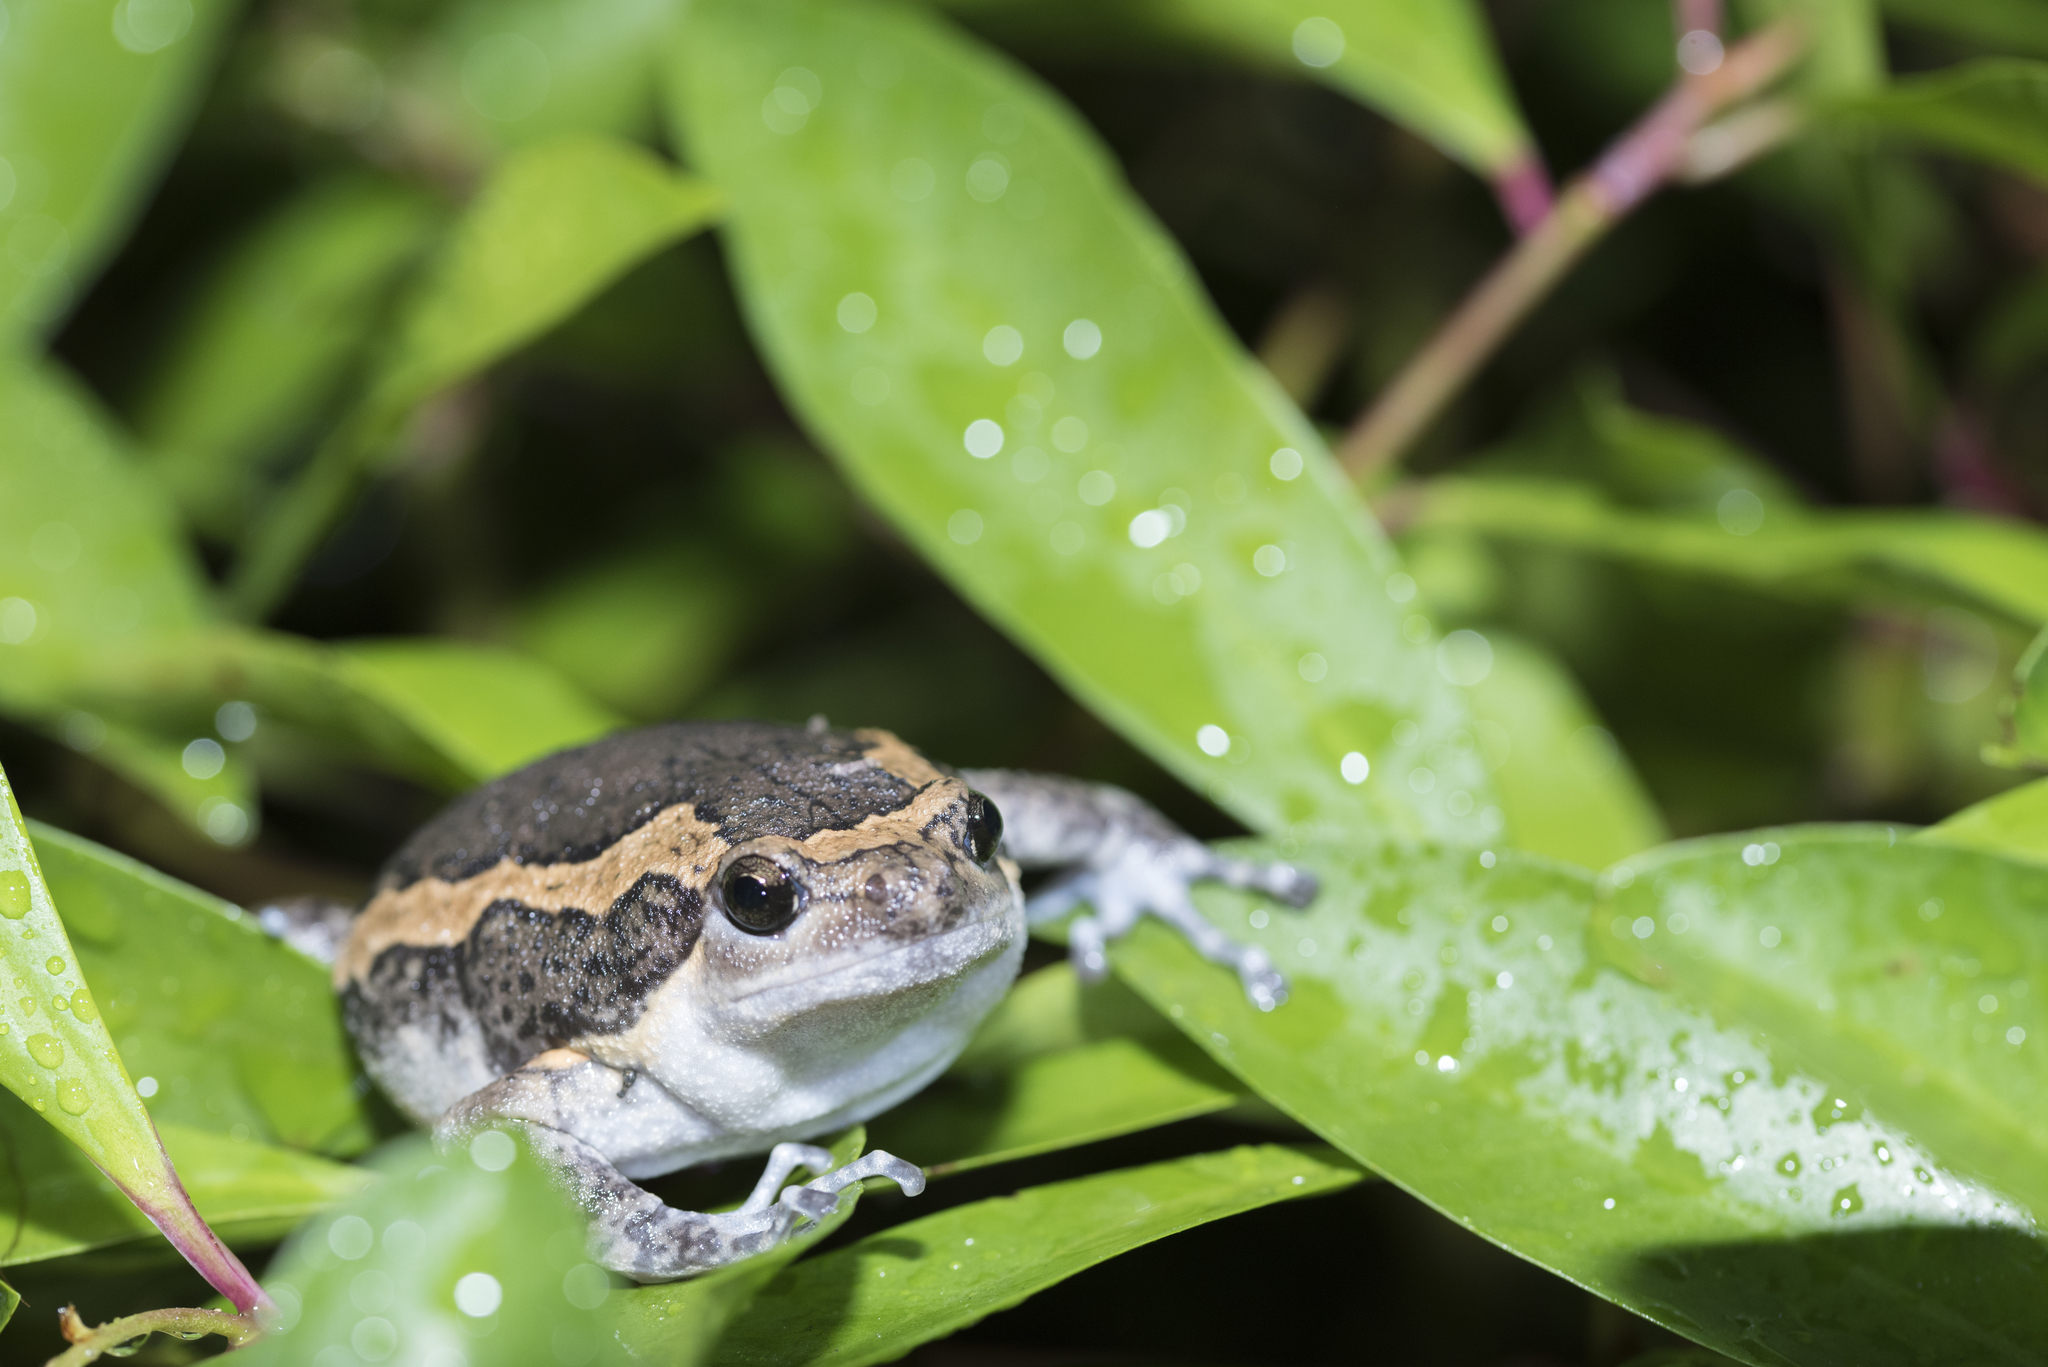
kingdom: Animalia
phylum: Chordata
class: Amphibia
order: Anura
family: Microhylidae
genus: Kaloula
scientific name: Kaloula pulchra
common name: Common,banded bullfrog
